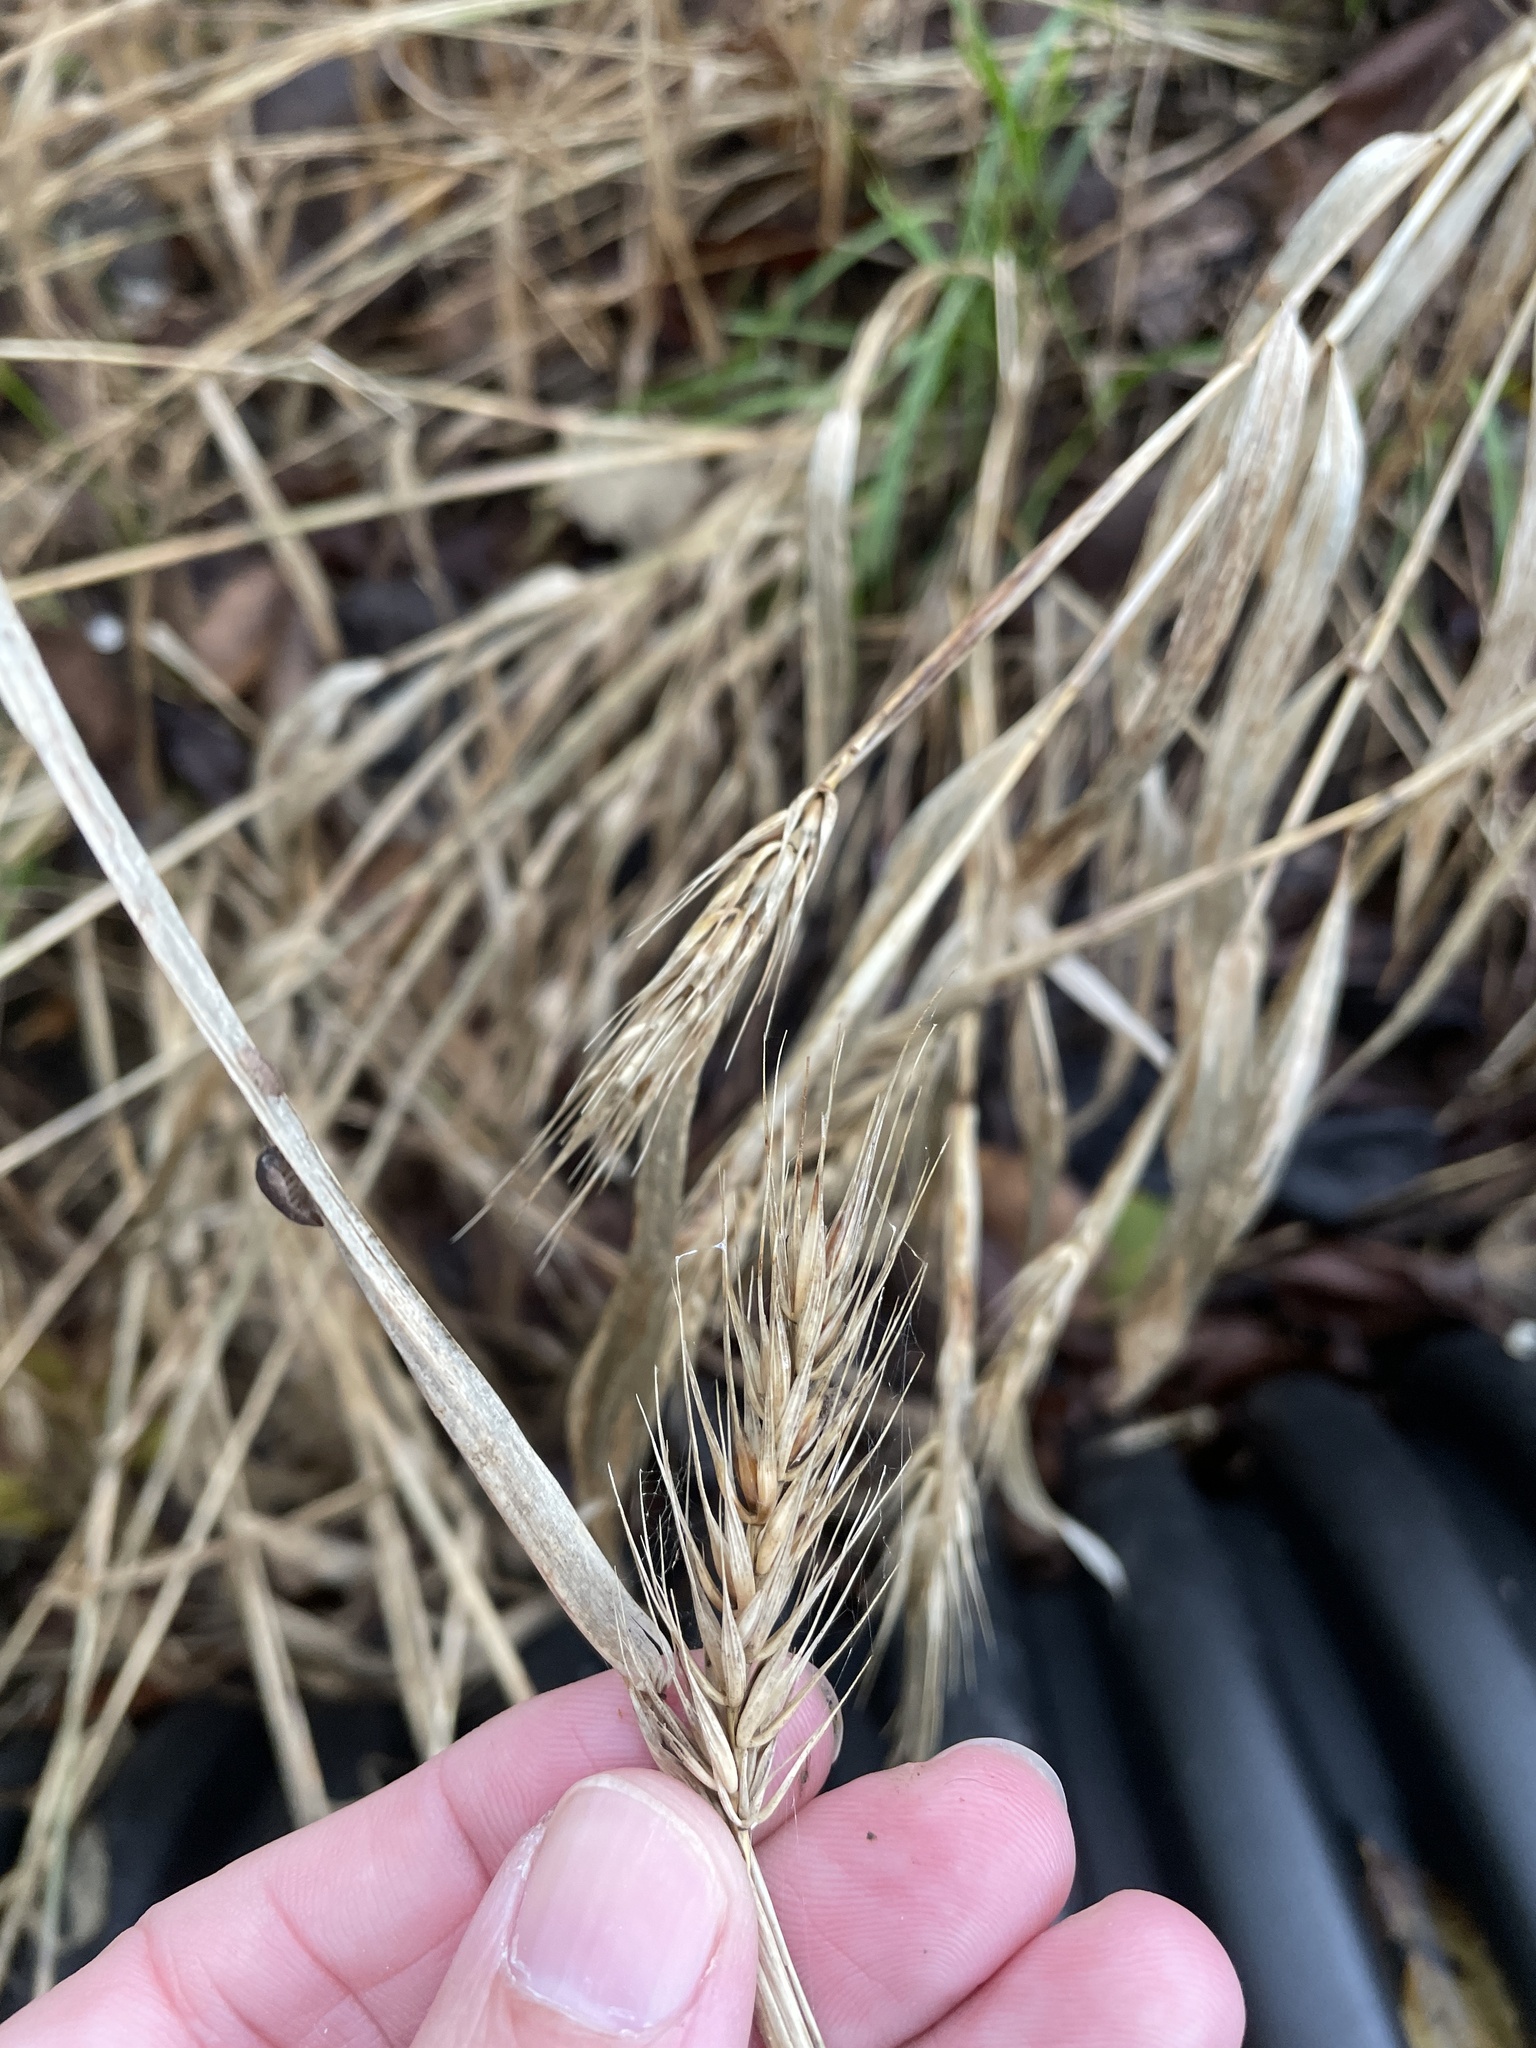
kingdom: Plantae
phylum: Tracheophyta
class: Liliopsida
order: Poales
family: Poaceae
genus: Elymus
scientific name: Elymus virginicus
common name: Common eastern wildrye
